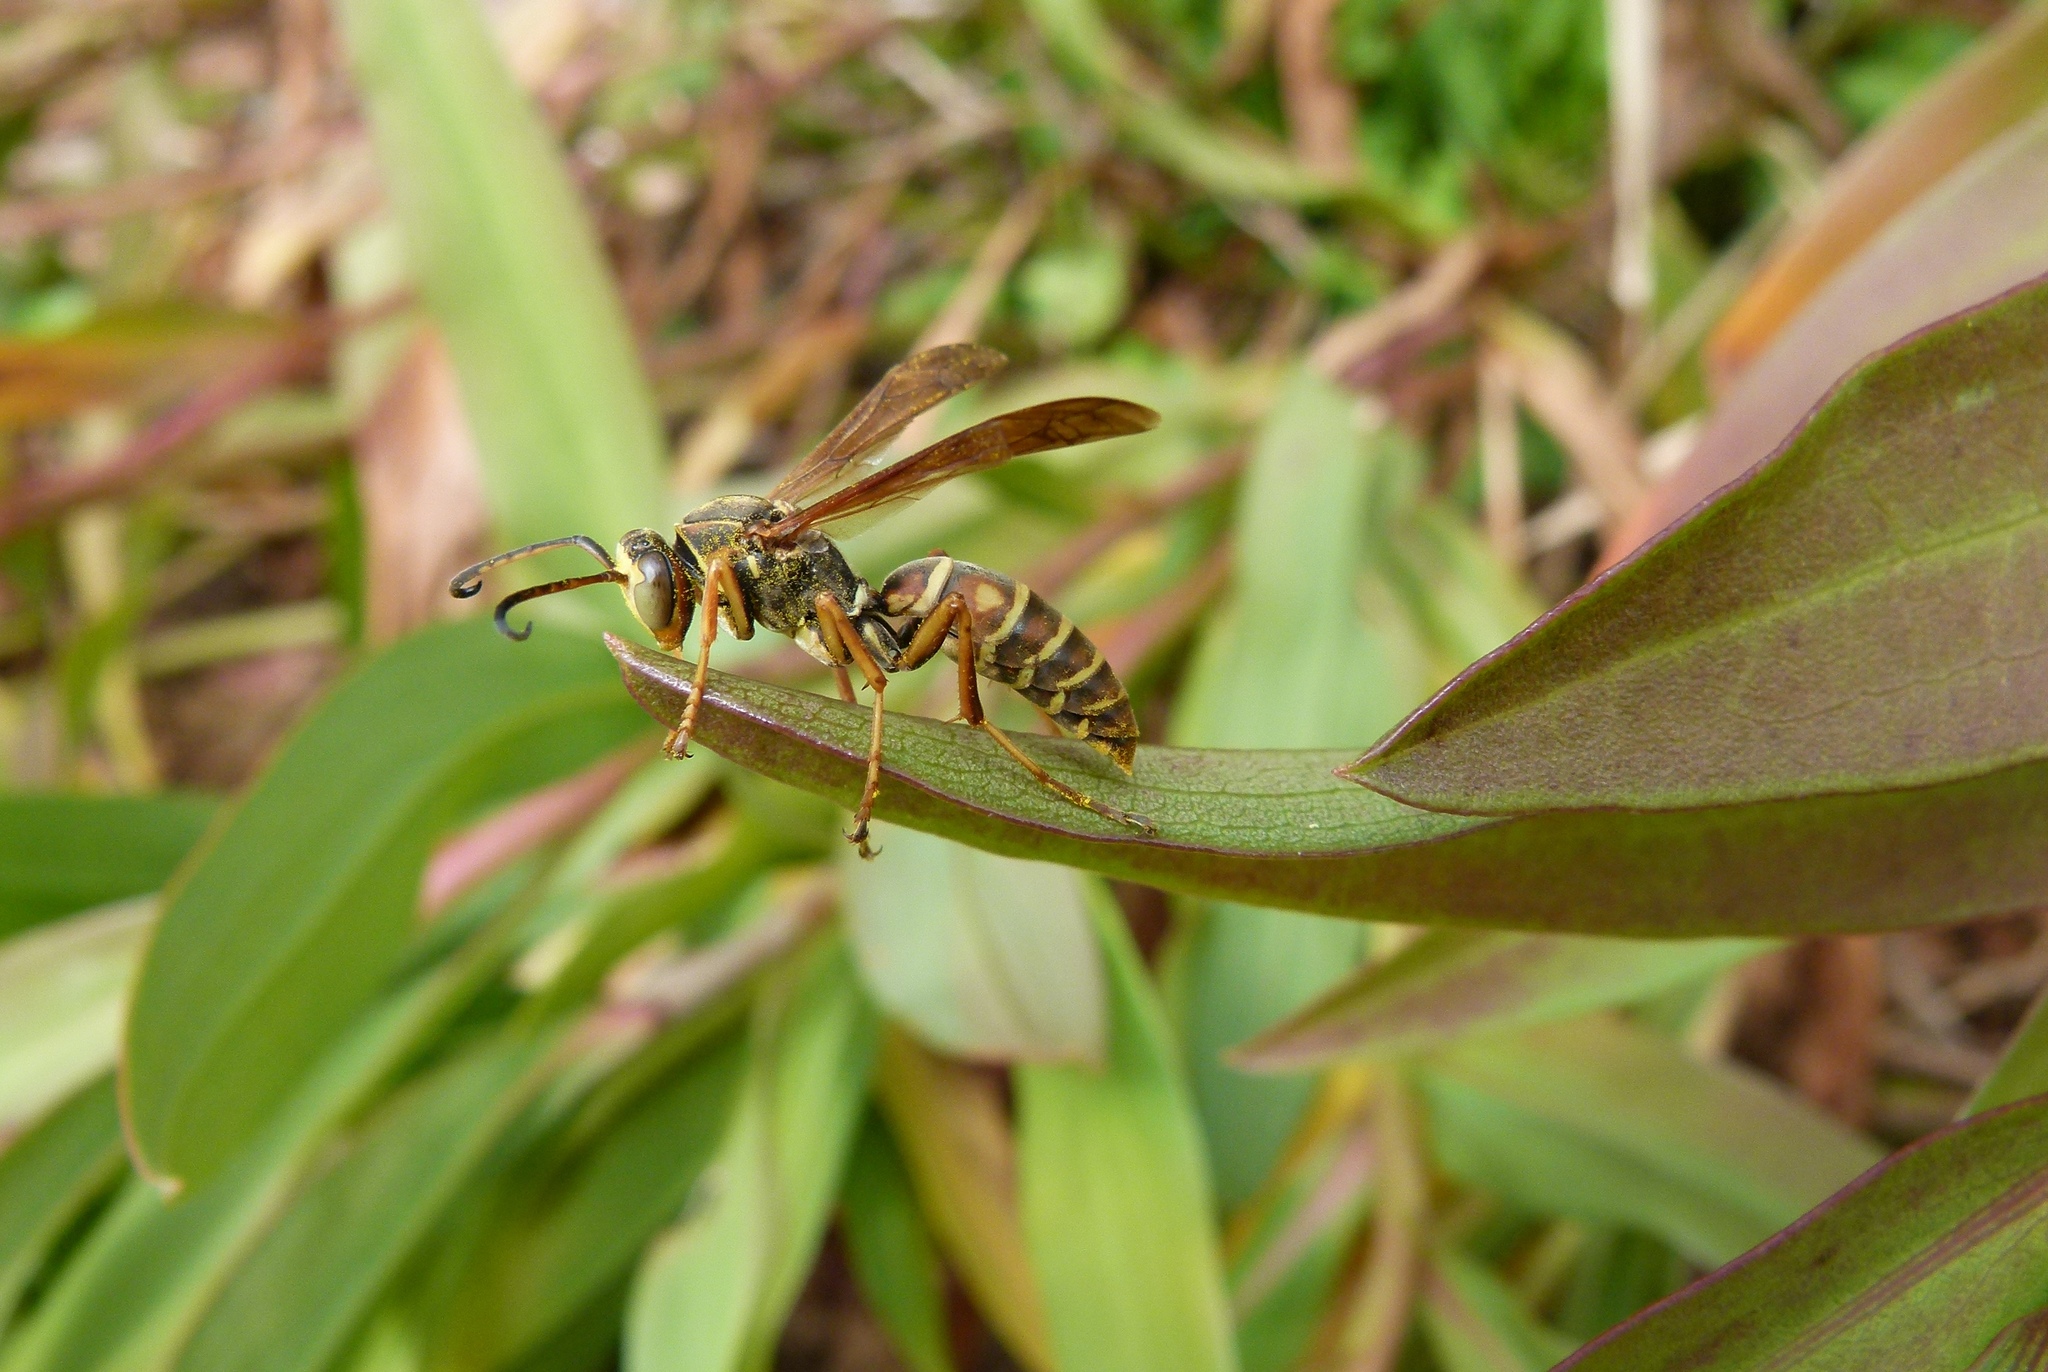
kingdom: Animalia
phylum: Arthropoda
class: Insecta
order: Hymenoptera
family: Eumenidae
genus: Polistes
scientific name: Polistes fuscatus
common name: Dark paper wasp
